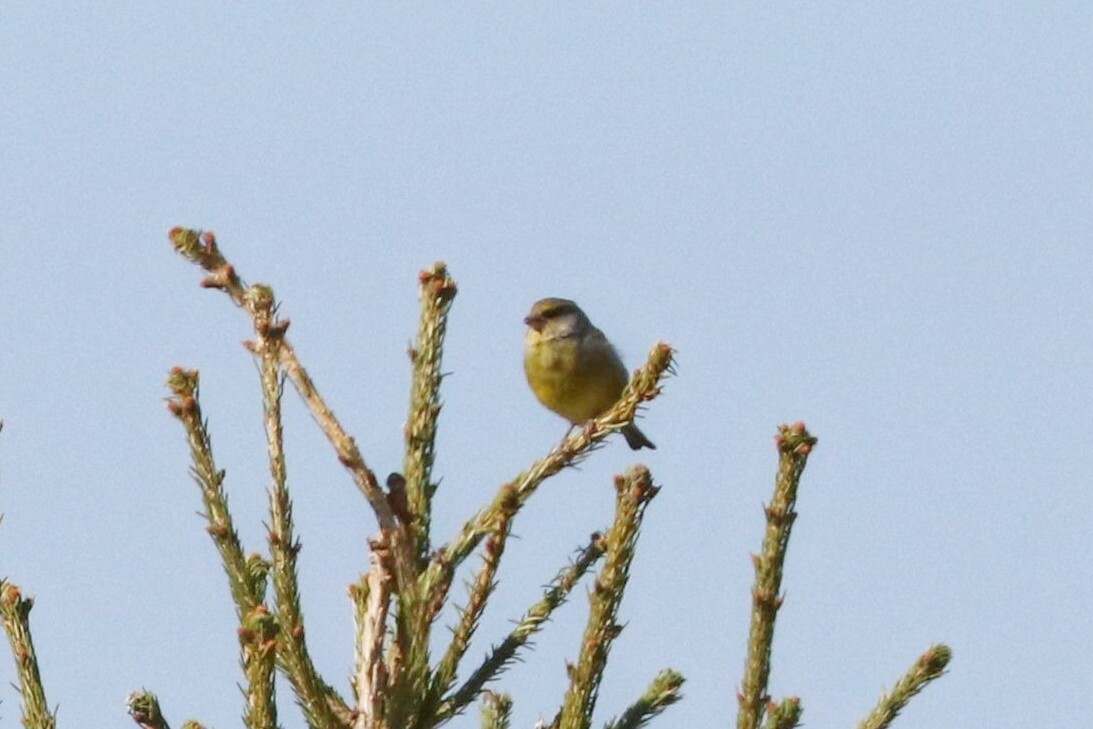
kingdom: Plantae
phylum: Tracheophyta
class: Liliopsida
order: Poales
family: Poaceae
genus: Chloris
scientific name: Chloris chloris
